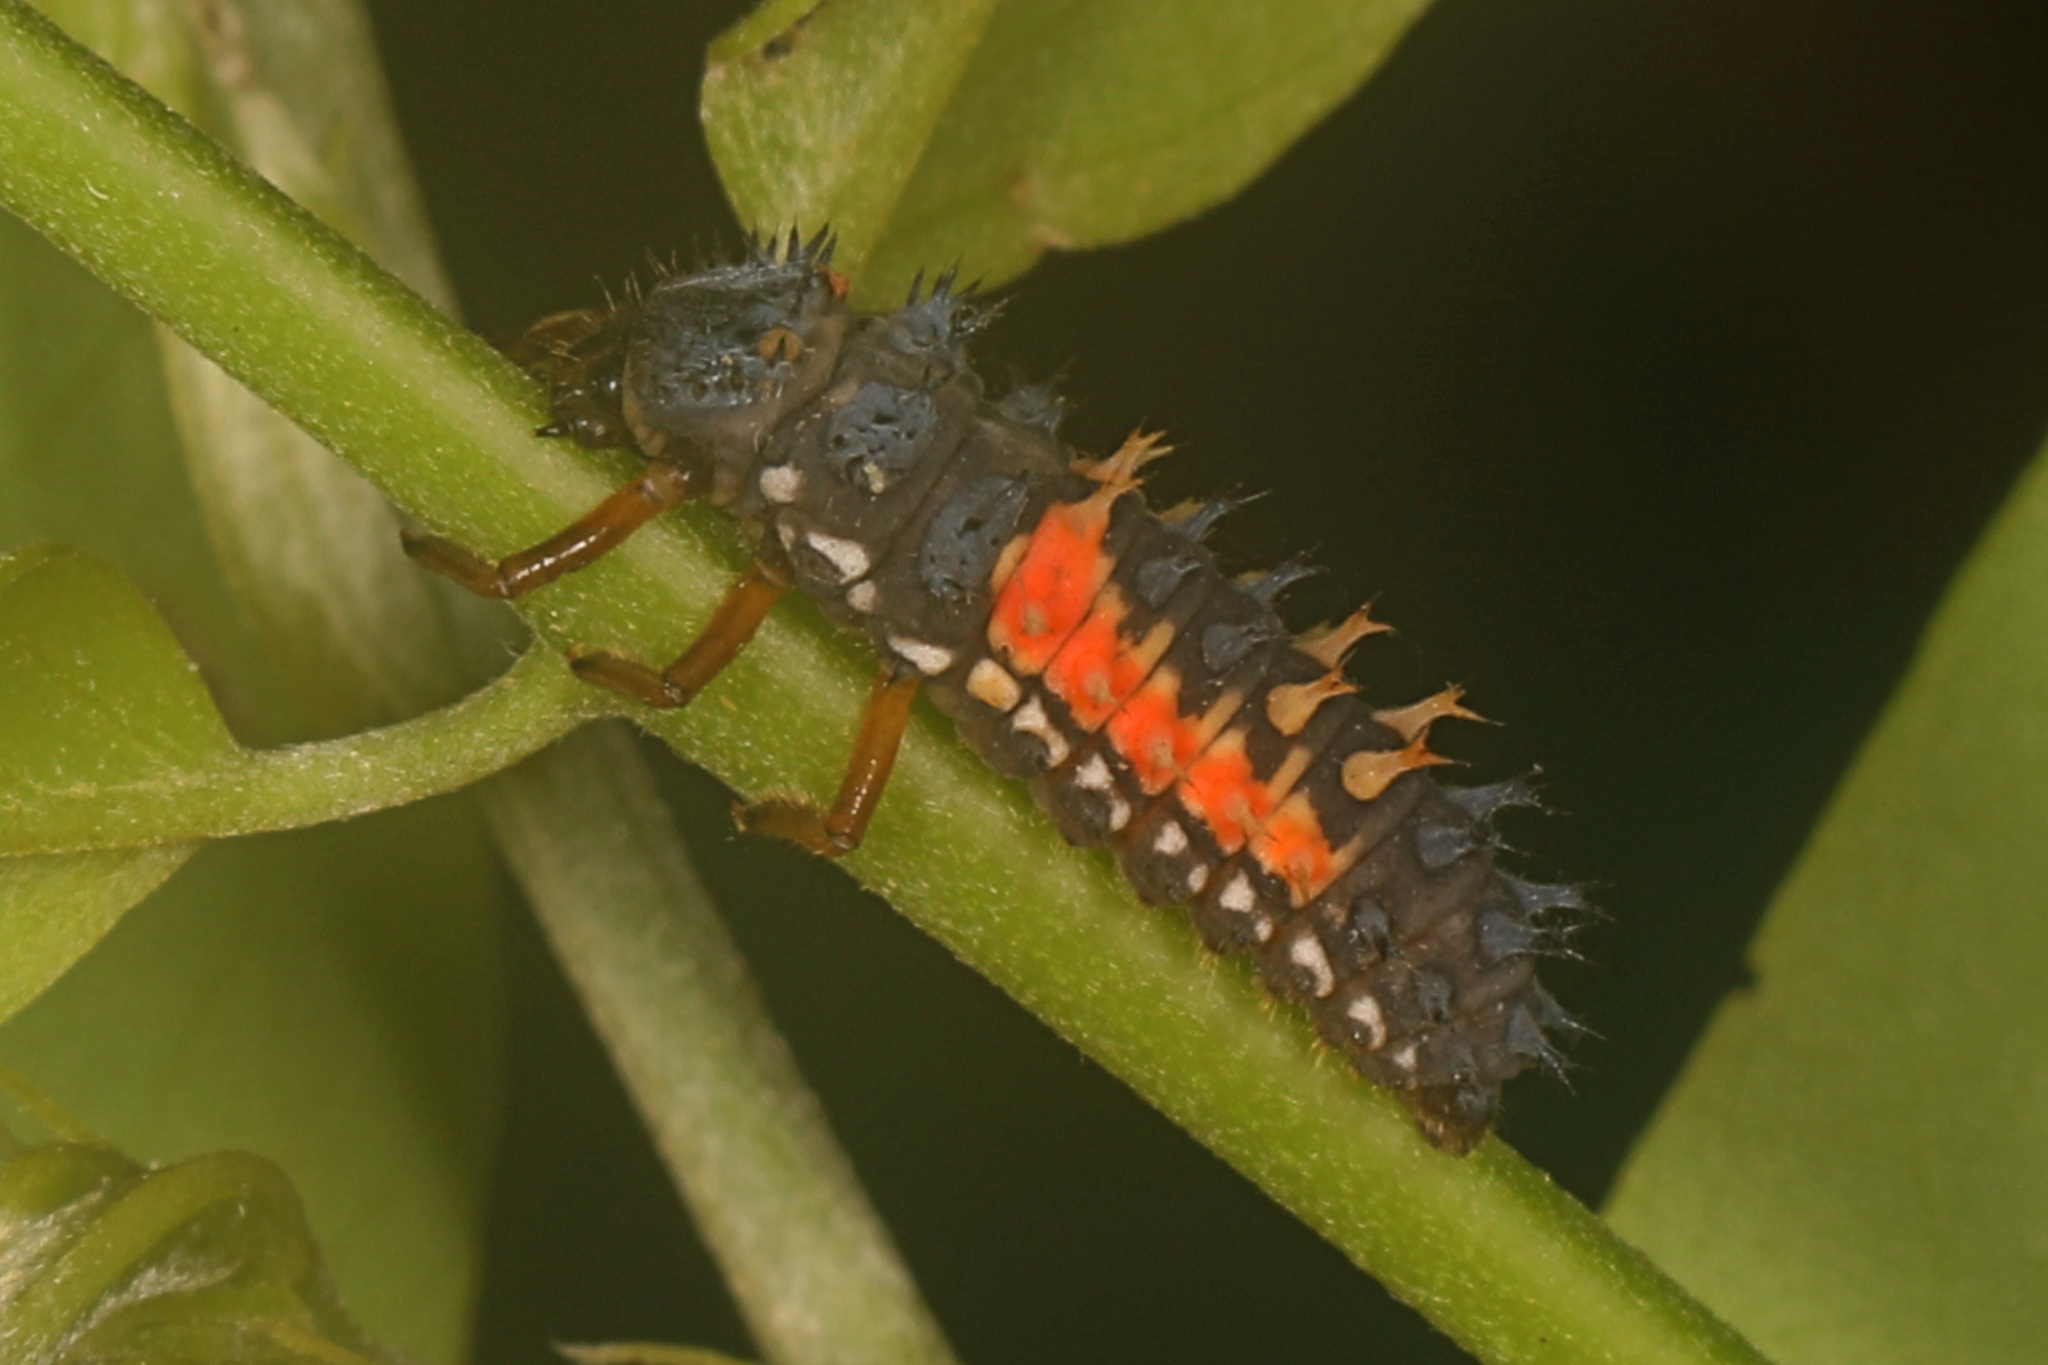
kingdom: Animalia
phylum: Arthropoda
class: Insecta
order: Coleoptera
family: Coccinellidae
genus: Harmonia
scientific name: Harmonia axyridis
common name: Harlequin ladybird
